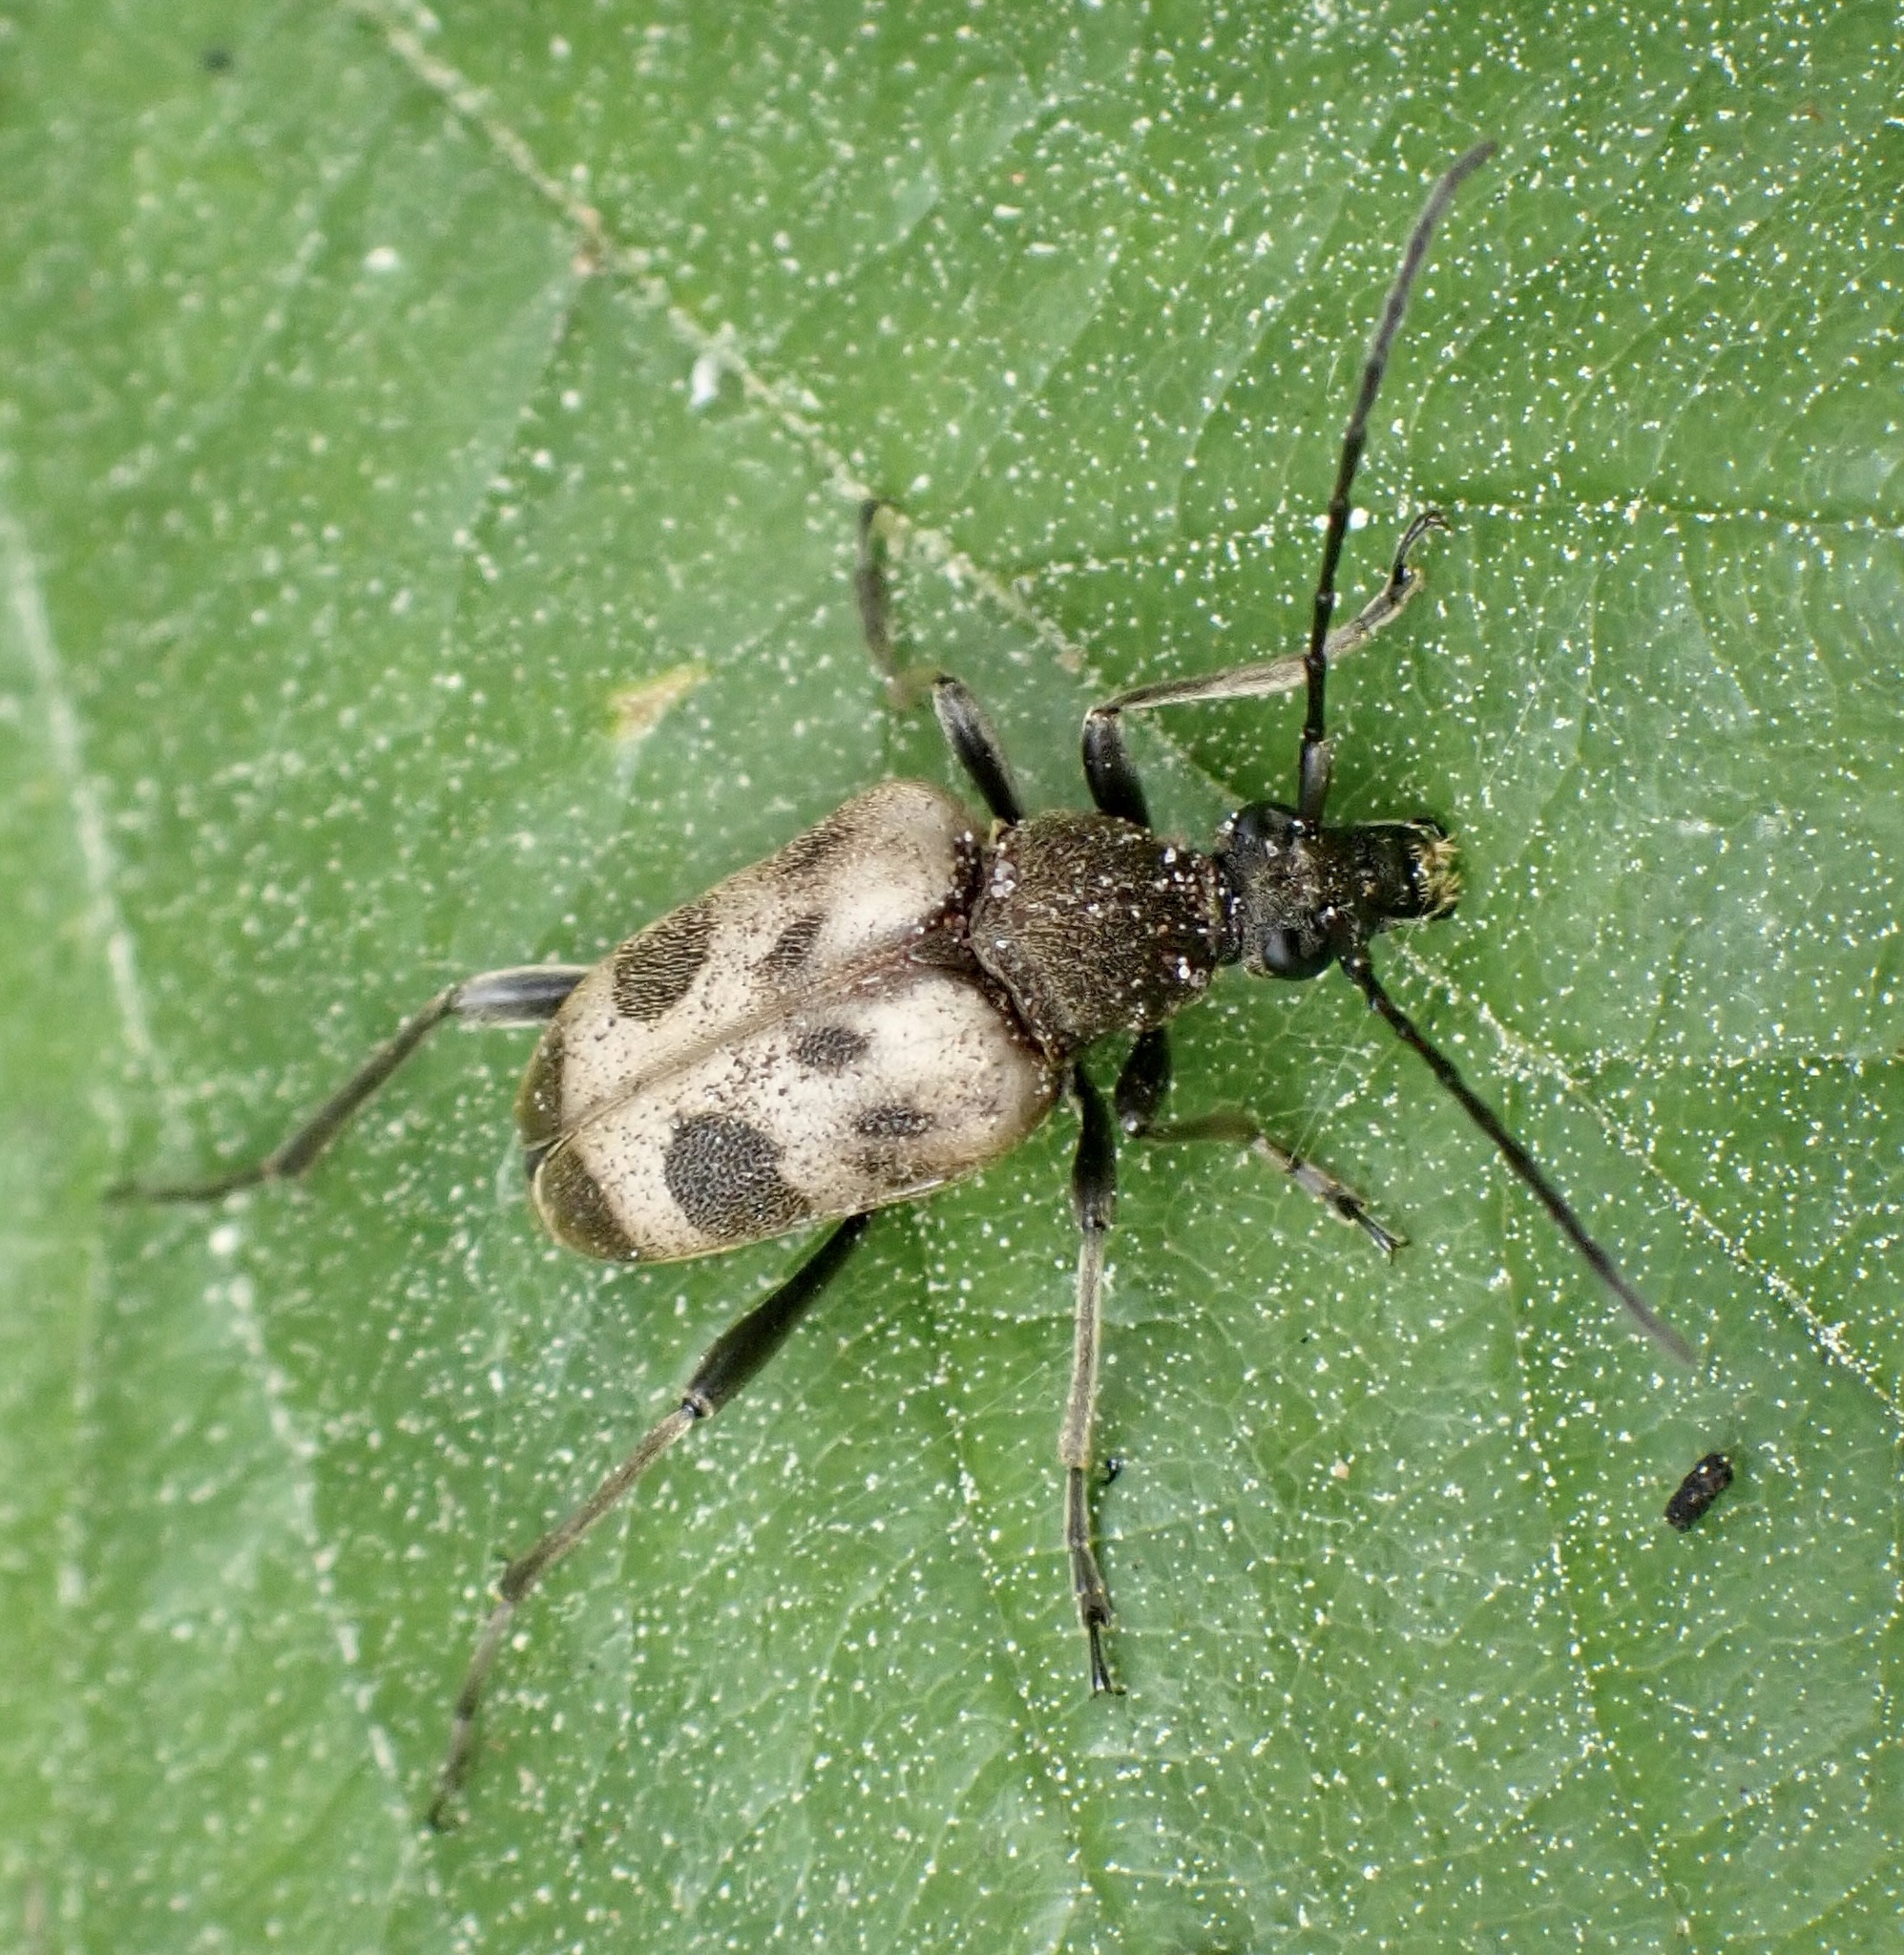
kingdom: Animalia
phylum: Arthropoda
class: Insecta
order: Coleoptera
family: Cerambycidae
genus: Pachytodes
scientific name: Pachytodes cerambyciformis
